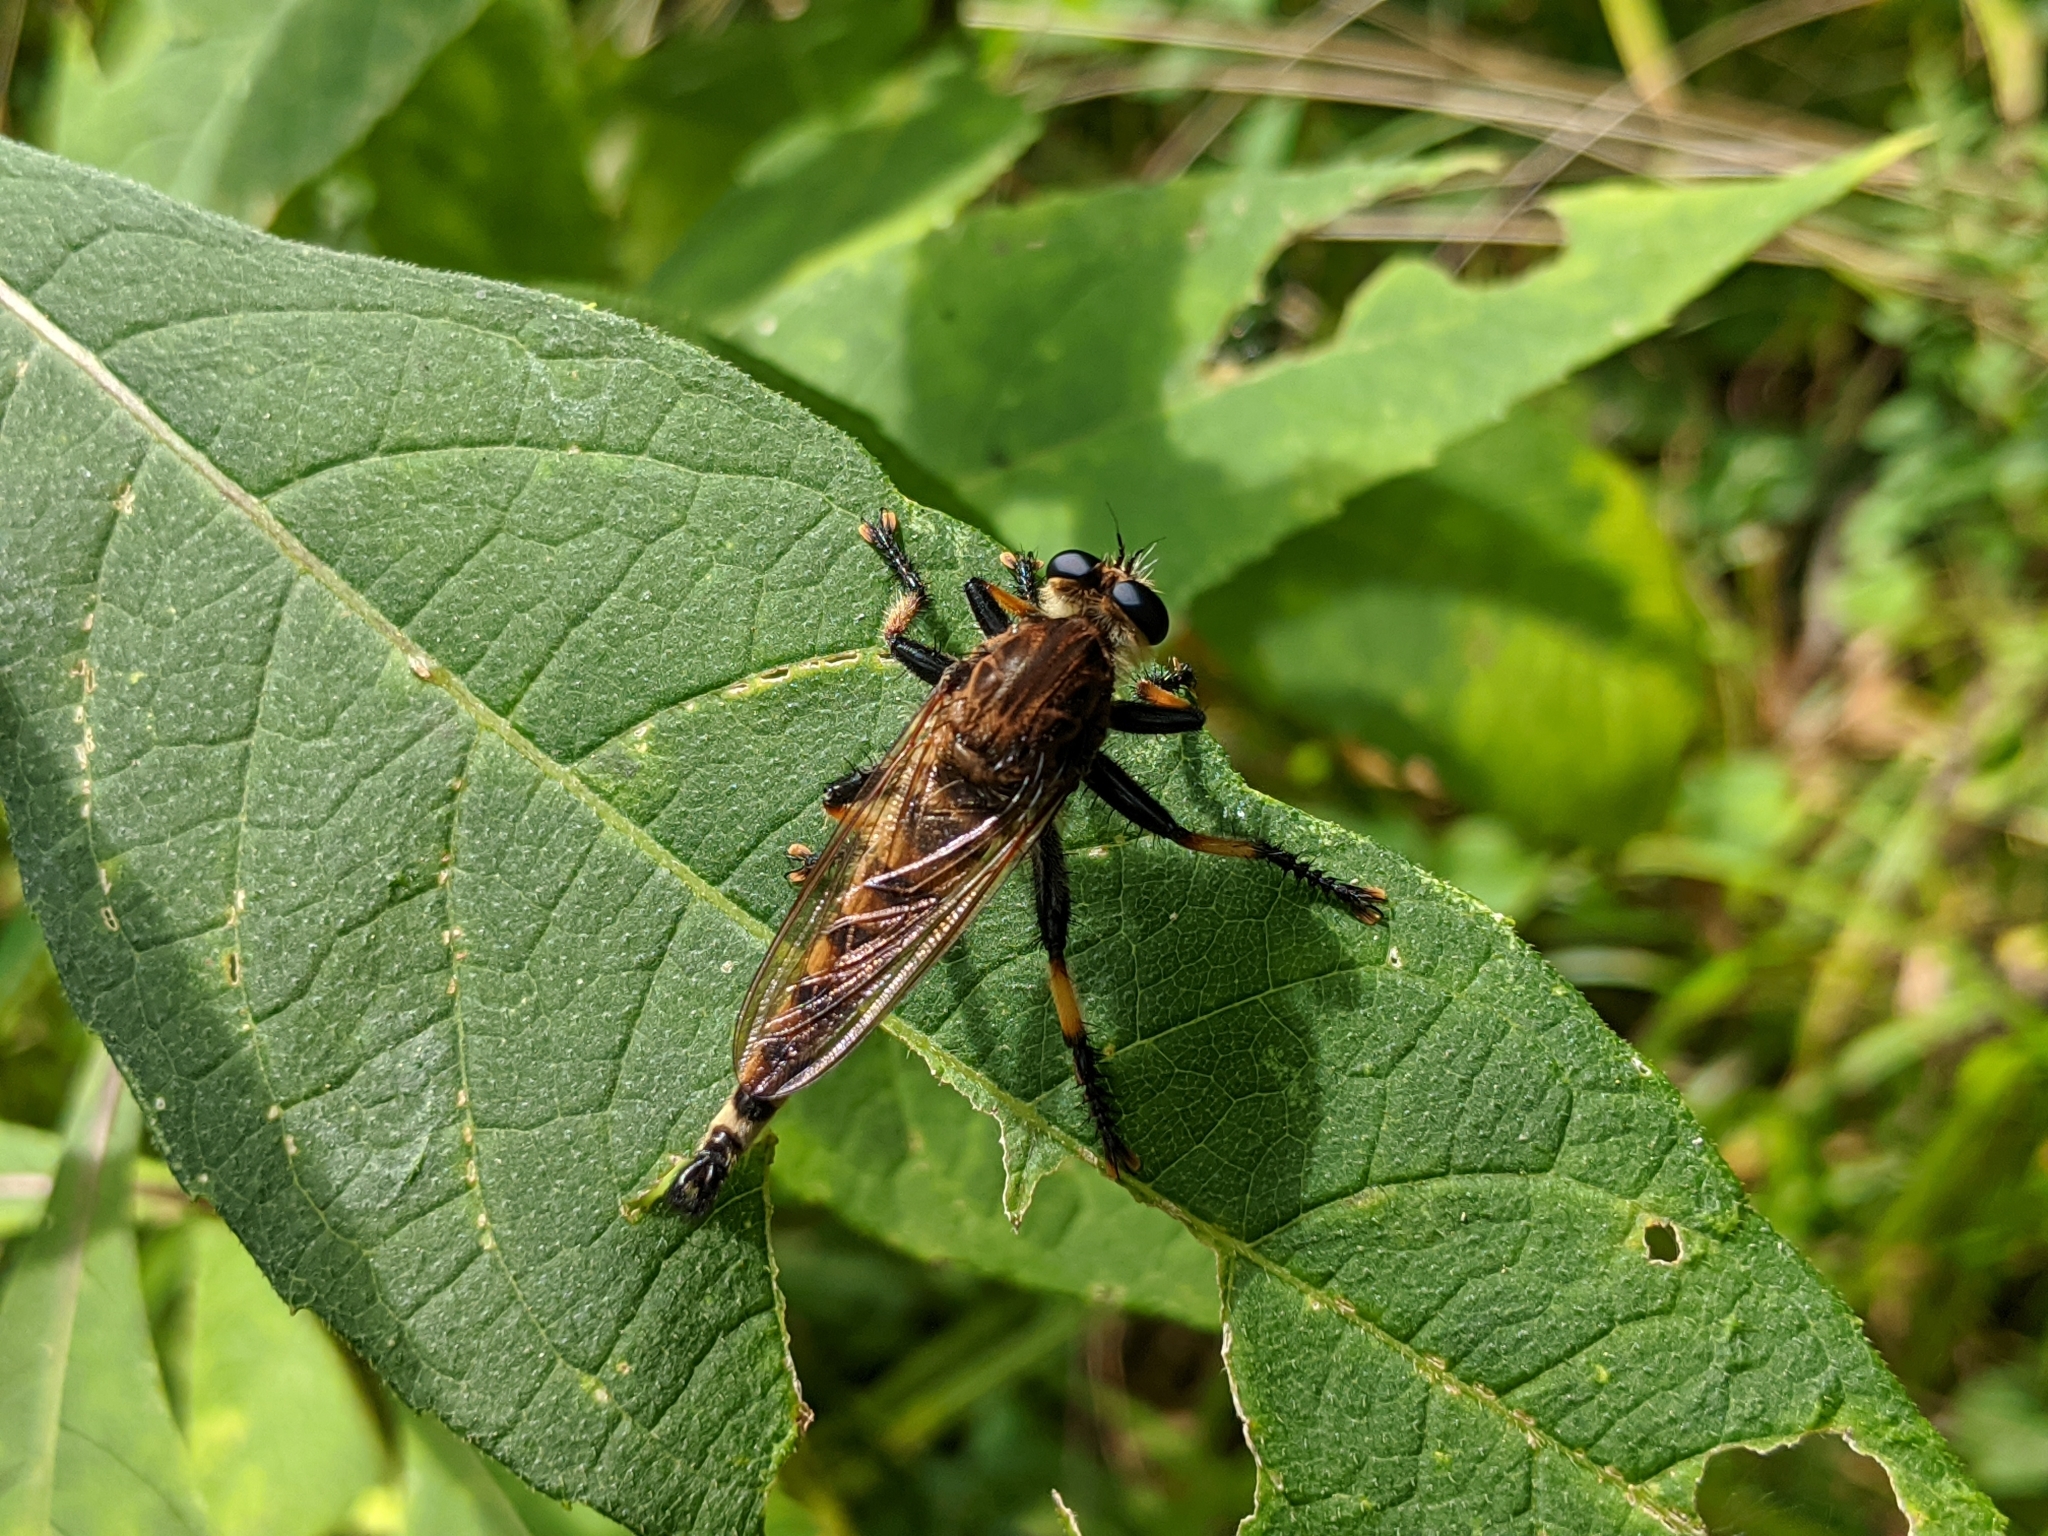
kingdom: Animalia
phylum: Arthropoda
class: Insecta
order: Diptera
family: Asilidae
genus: Promachus
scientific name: Promachus rufipes
